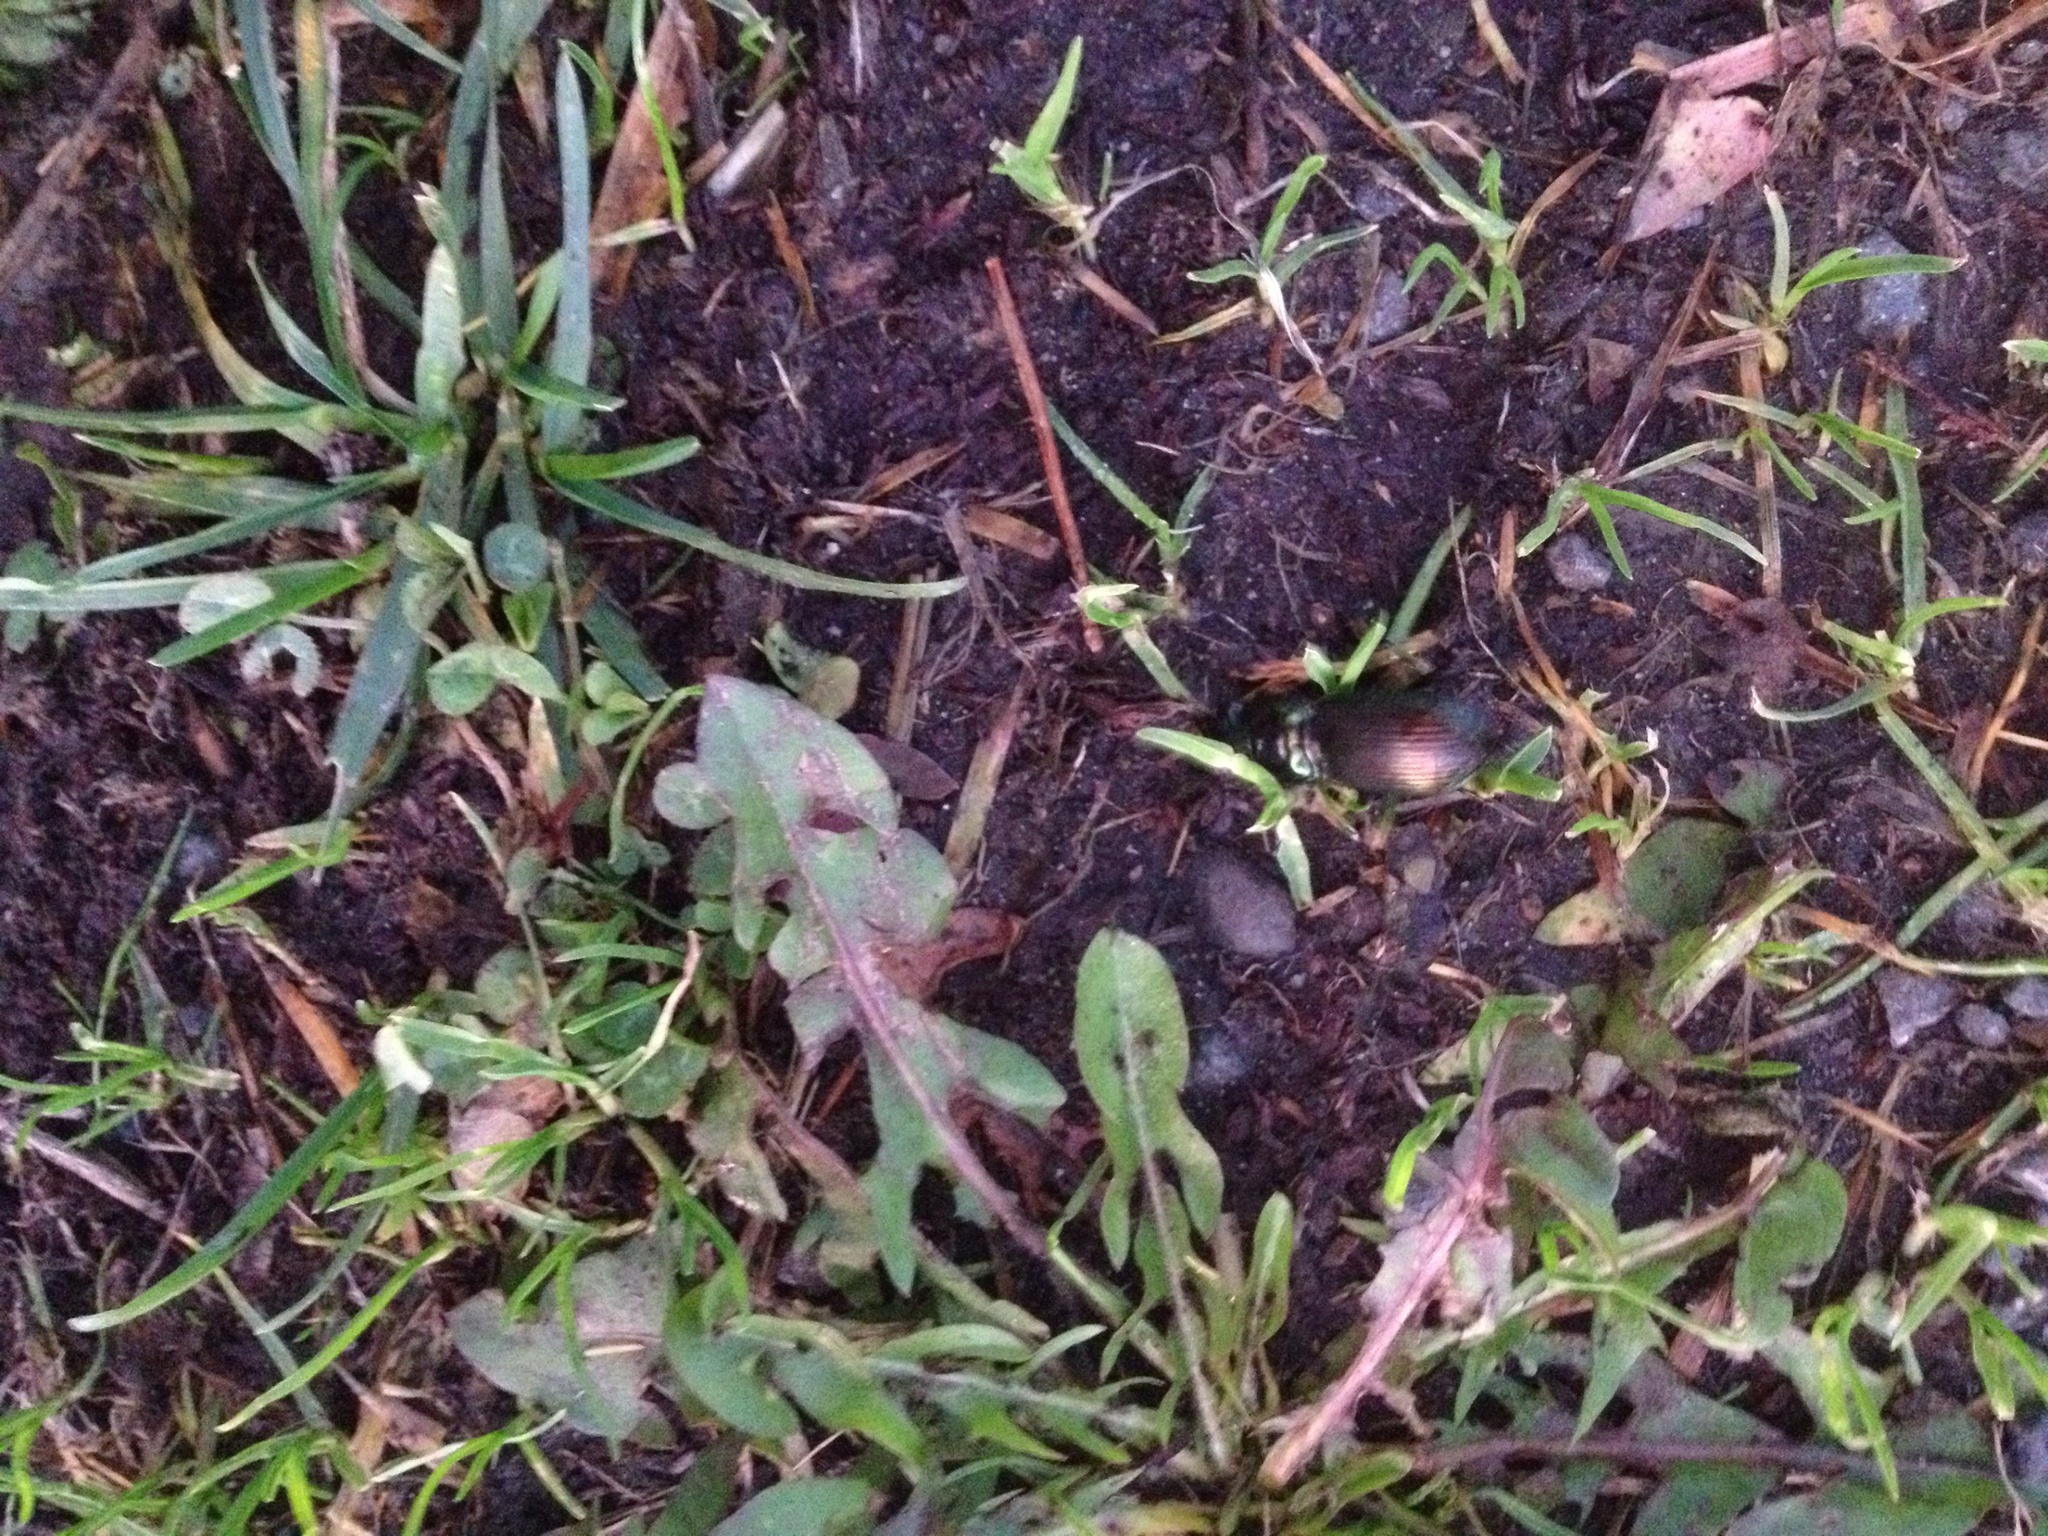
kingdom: Animalia
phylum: Arthropoda
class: Insecta
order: Coleoptera
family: Carabidae
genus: Megadromus
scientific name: Megadromus antarcticus
